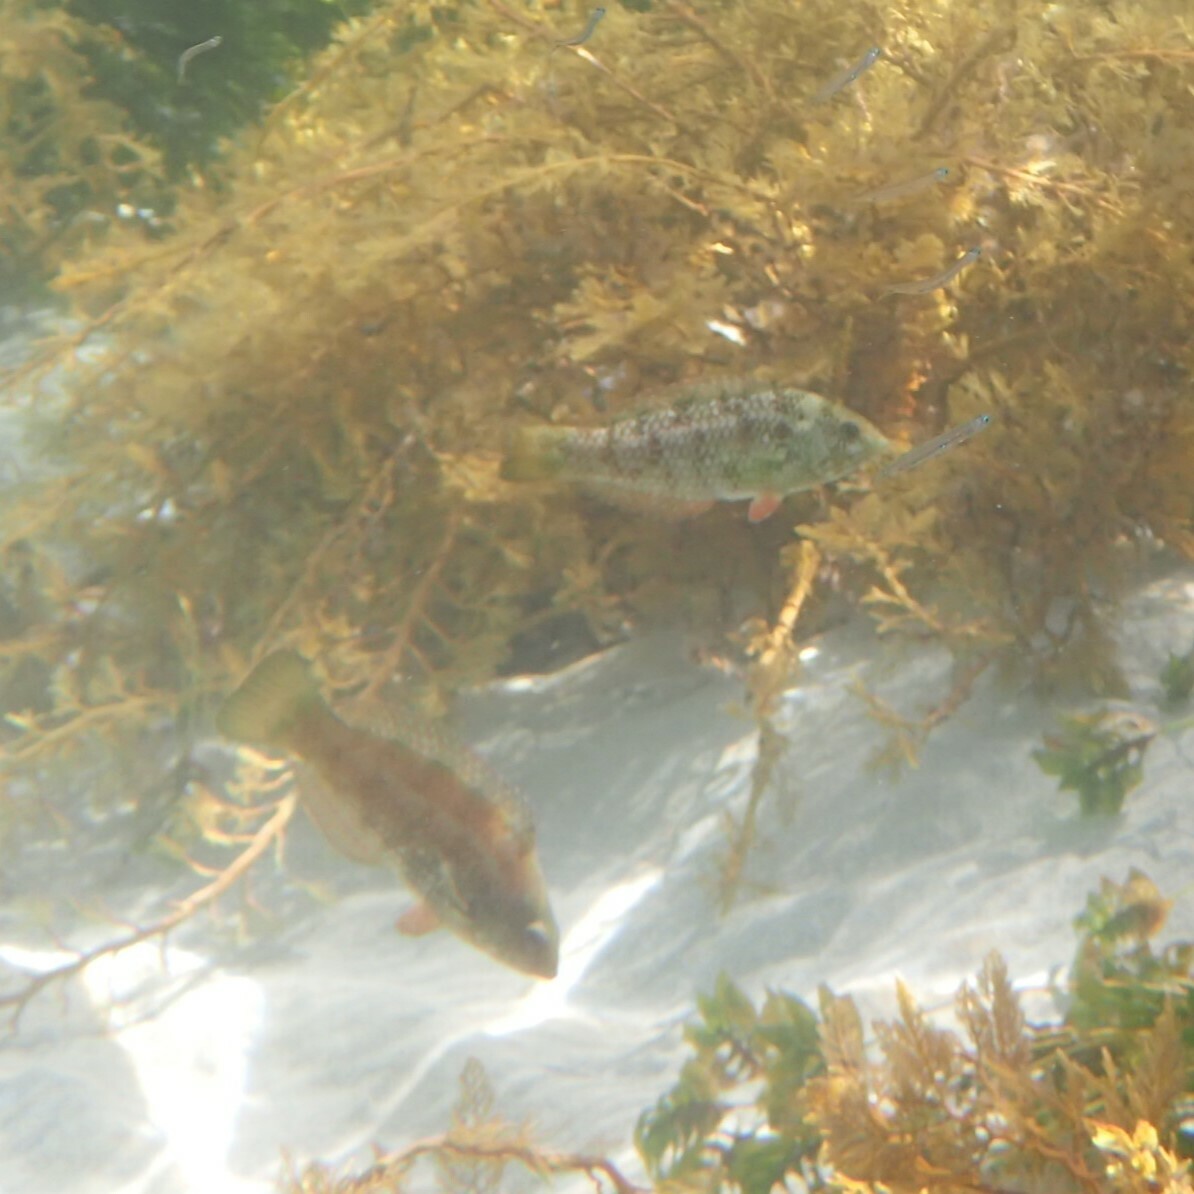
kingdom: Animalia
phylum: Chordata
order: Perciformes
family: Labridae
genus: Notolabrus
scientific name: Notolabrus parilus
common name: Brown spotted wrasse
